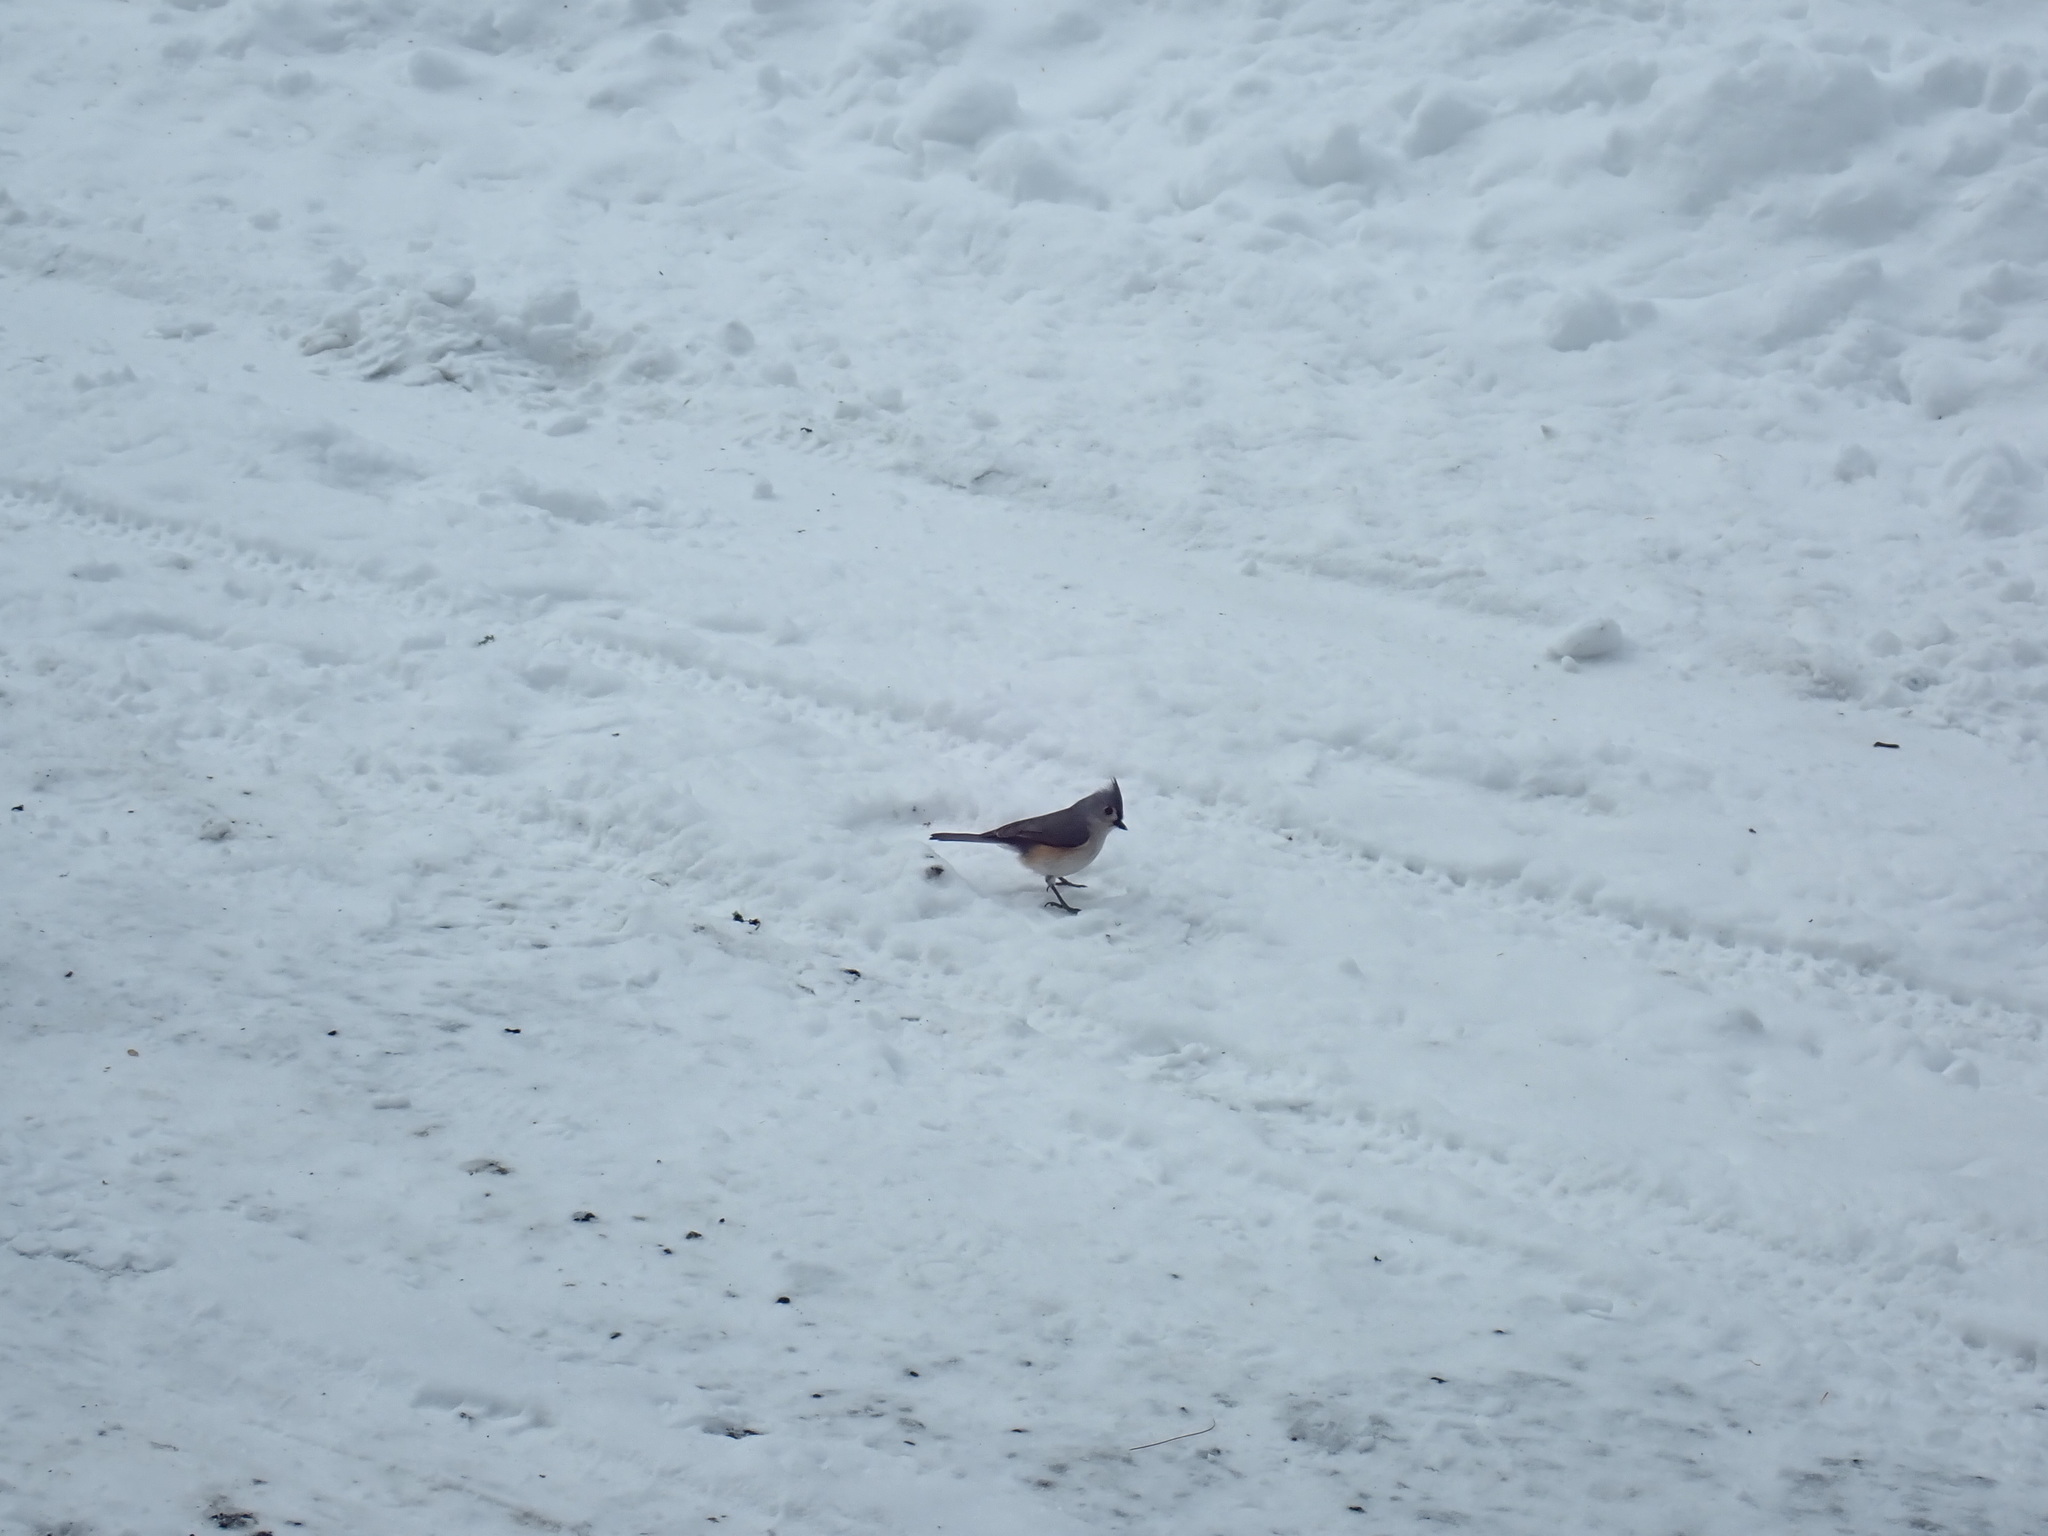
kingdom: Animalia
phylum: Chordata
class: Aves
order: Passeriformes
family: Paridae
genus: Baeolophus
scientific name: Baeolophus bicolor
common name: Tufted titmouse
